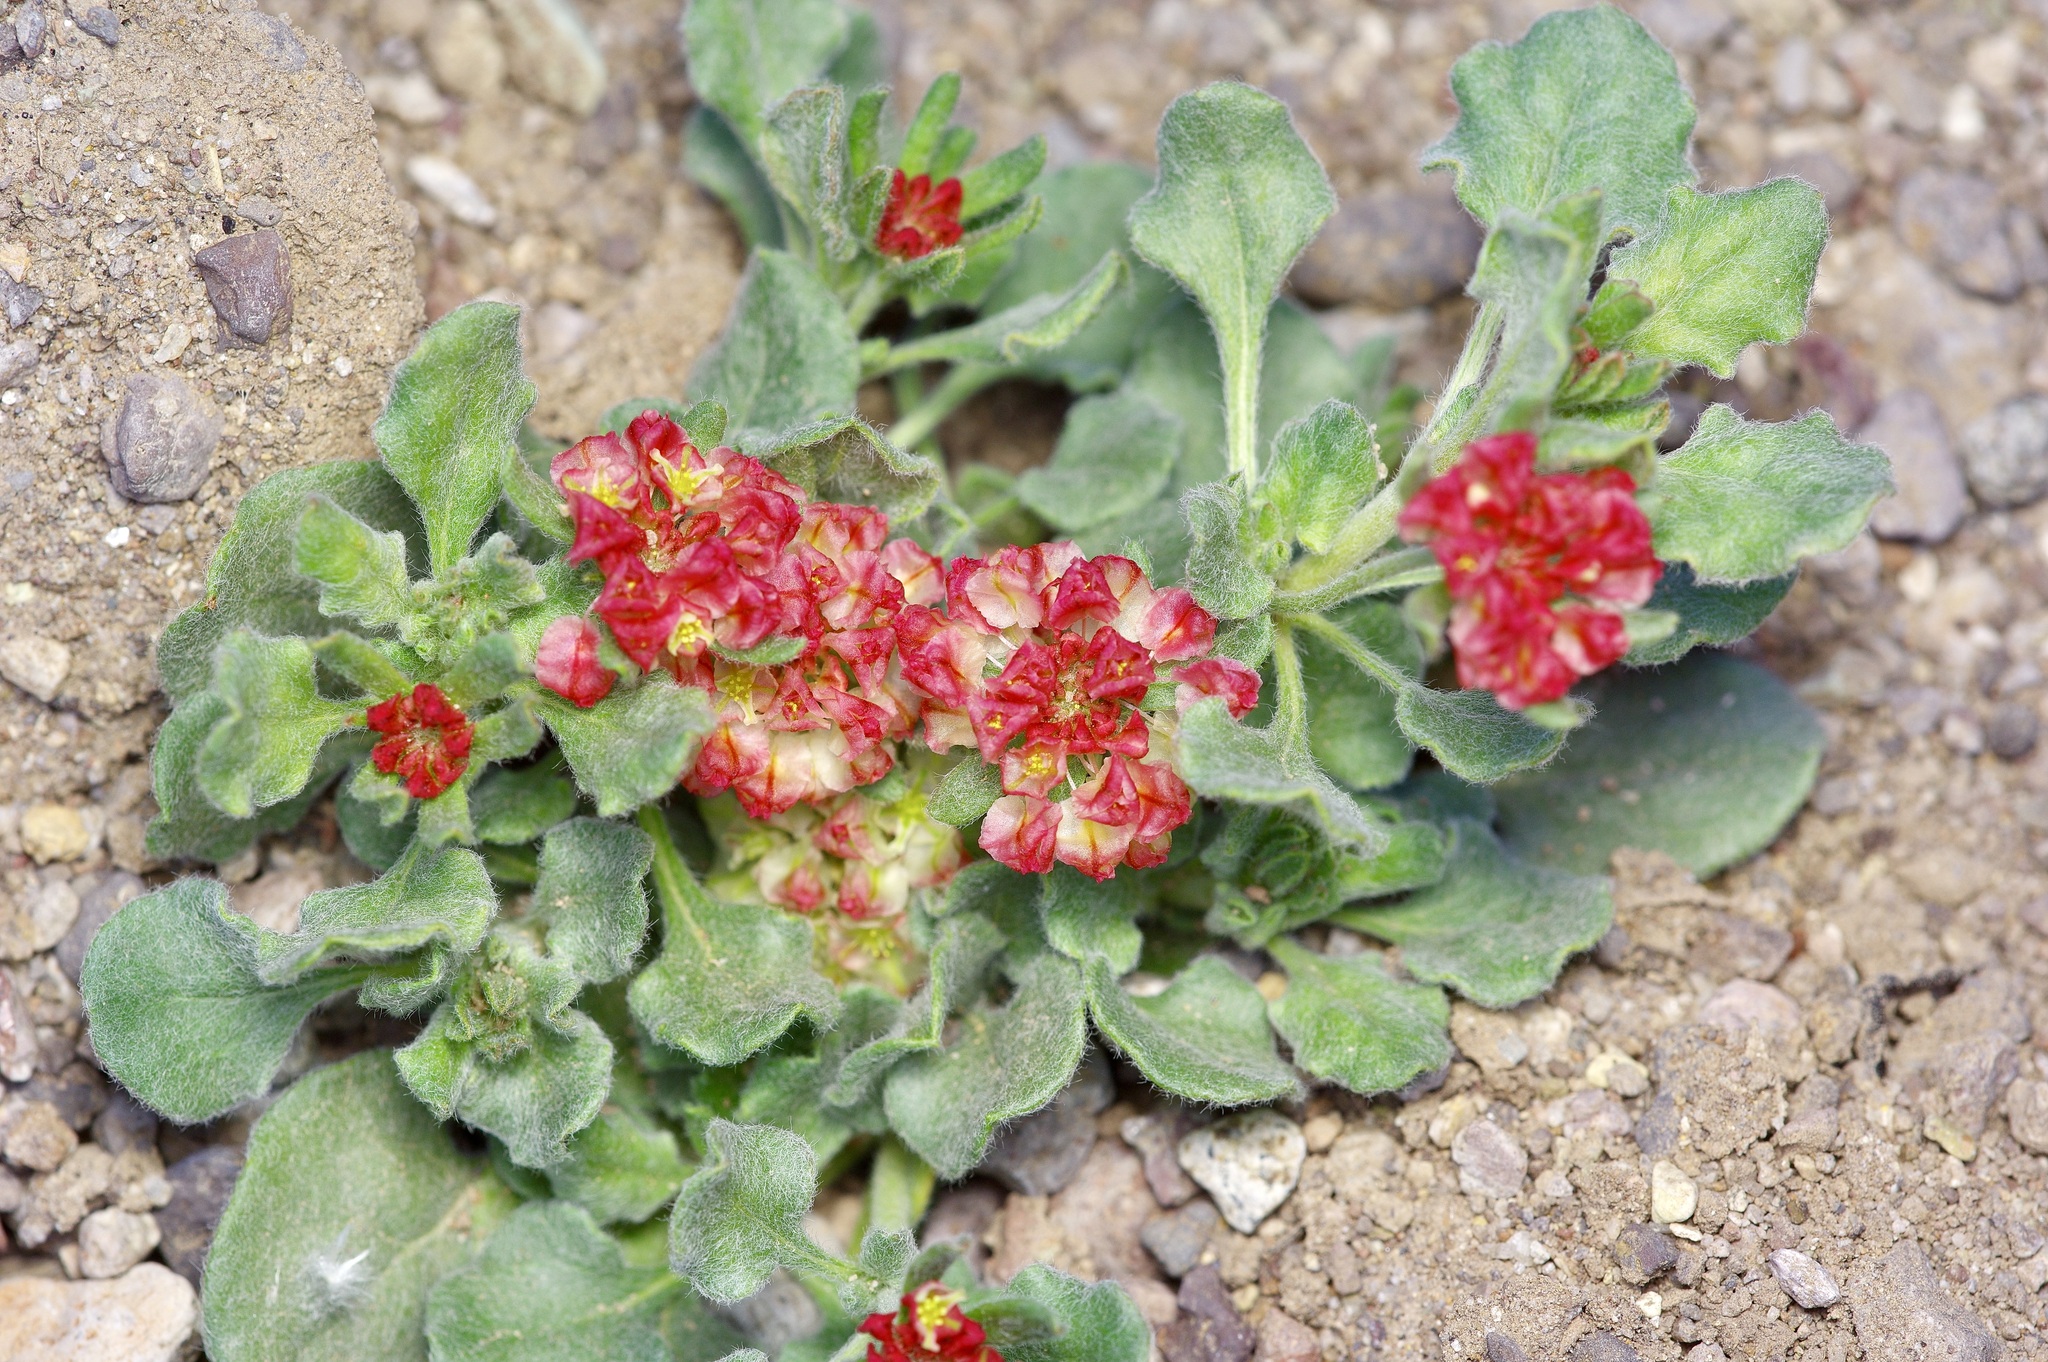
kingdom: Plantae
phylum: Tracheophyta
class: Magnoliopsida
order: Caryophyllales
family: Polygonaceae
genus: Eriogonum
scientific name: Eriogonum abertianum
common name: Abert's wild buckwheat
